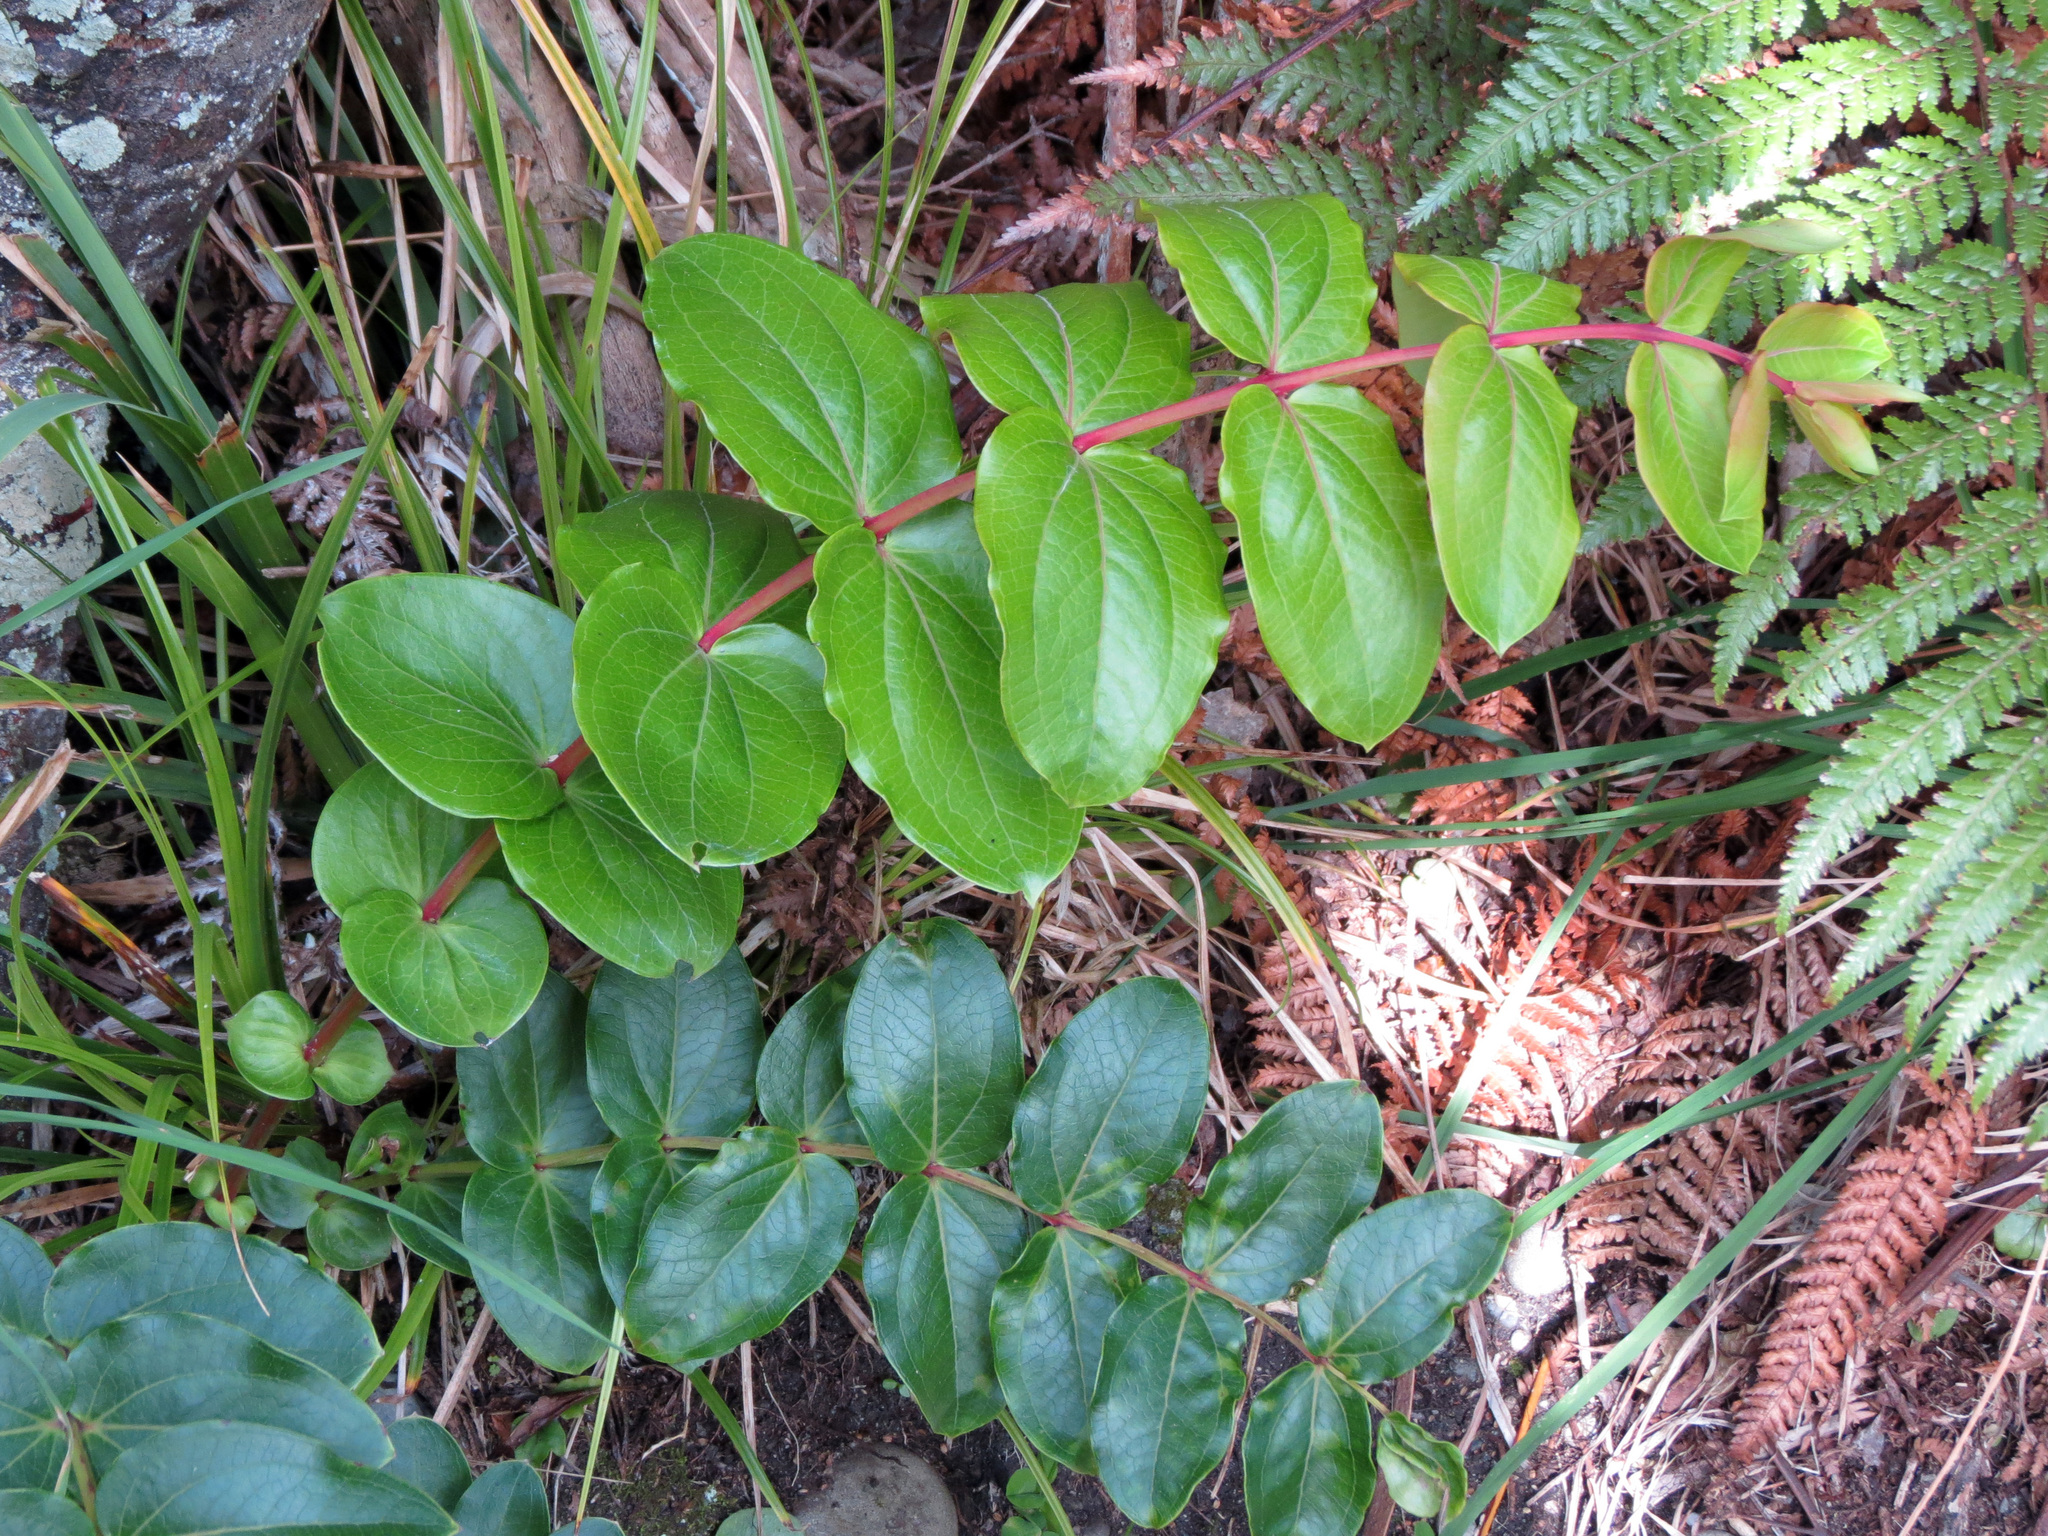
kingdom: Plantae
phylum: Tracheophyta
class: Magnoliopsida
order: Cucurbitales
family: Coriariaceae
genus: Coriaria
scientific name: Coriaria arborea
